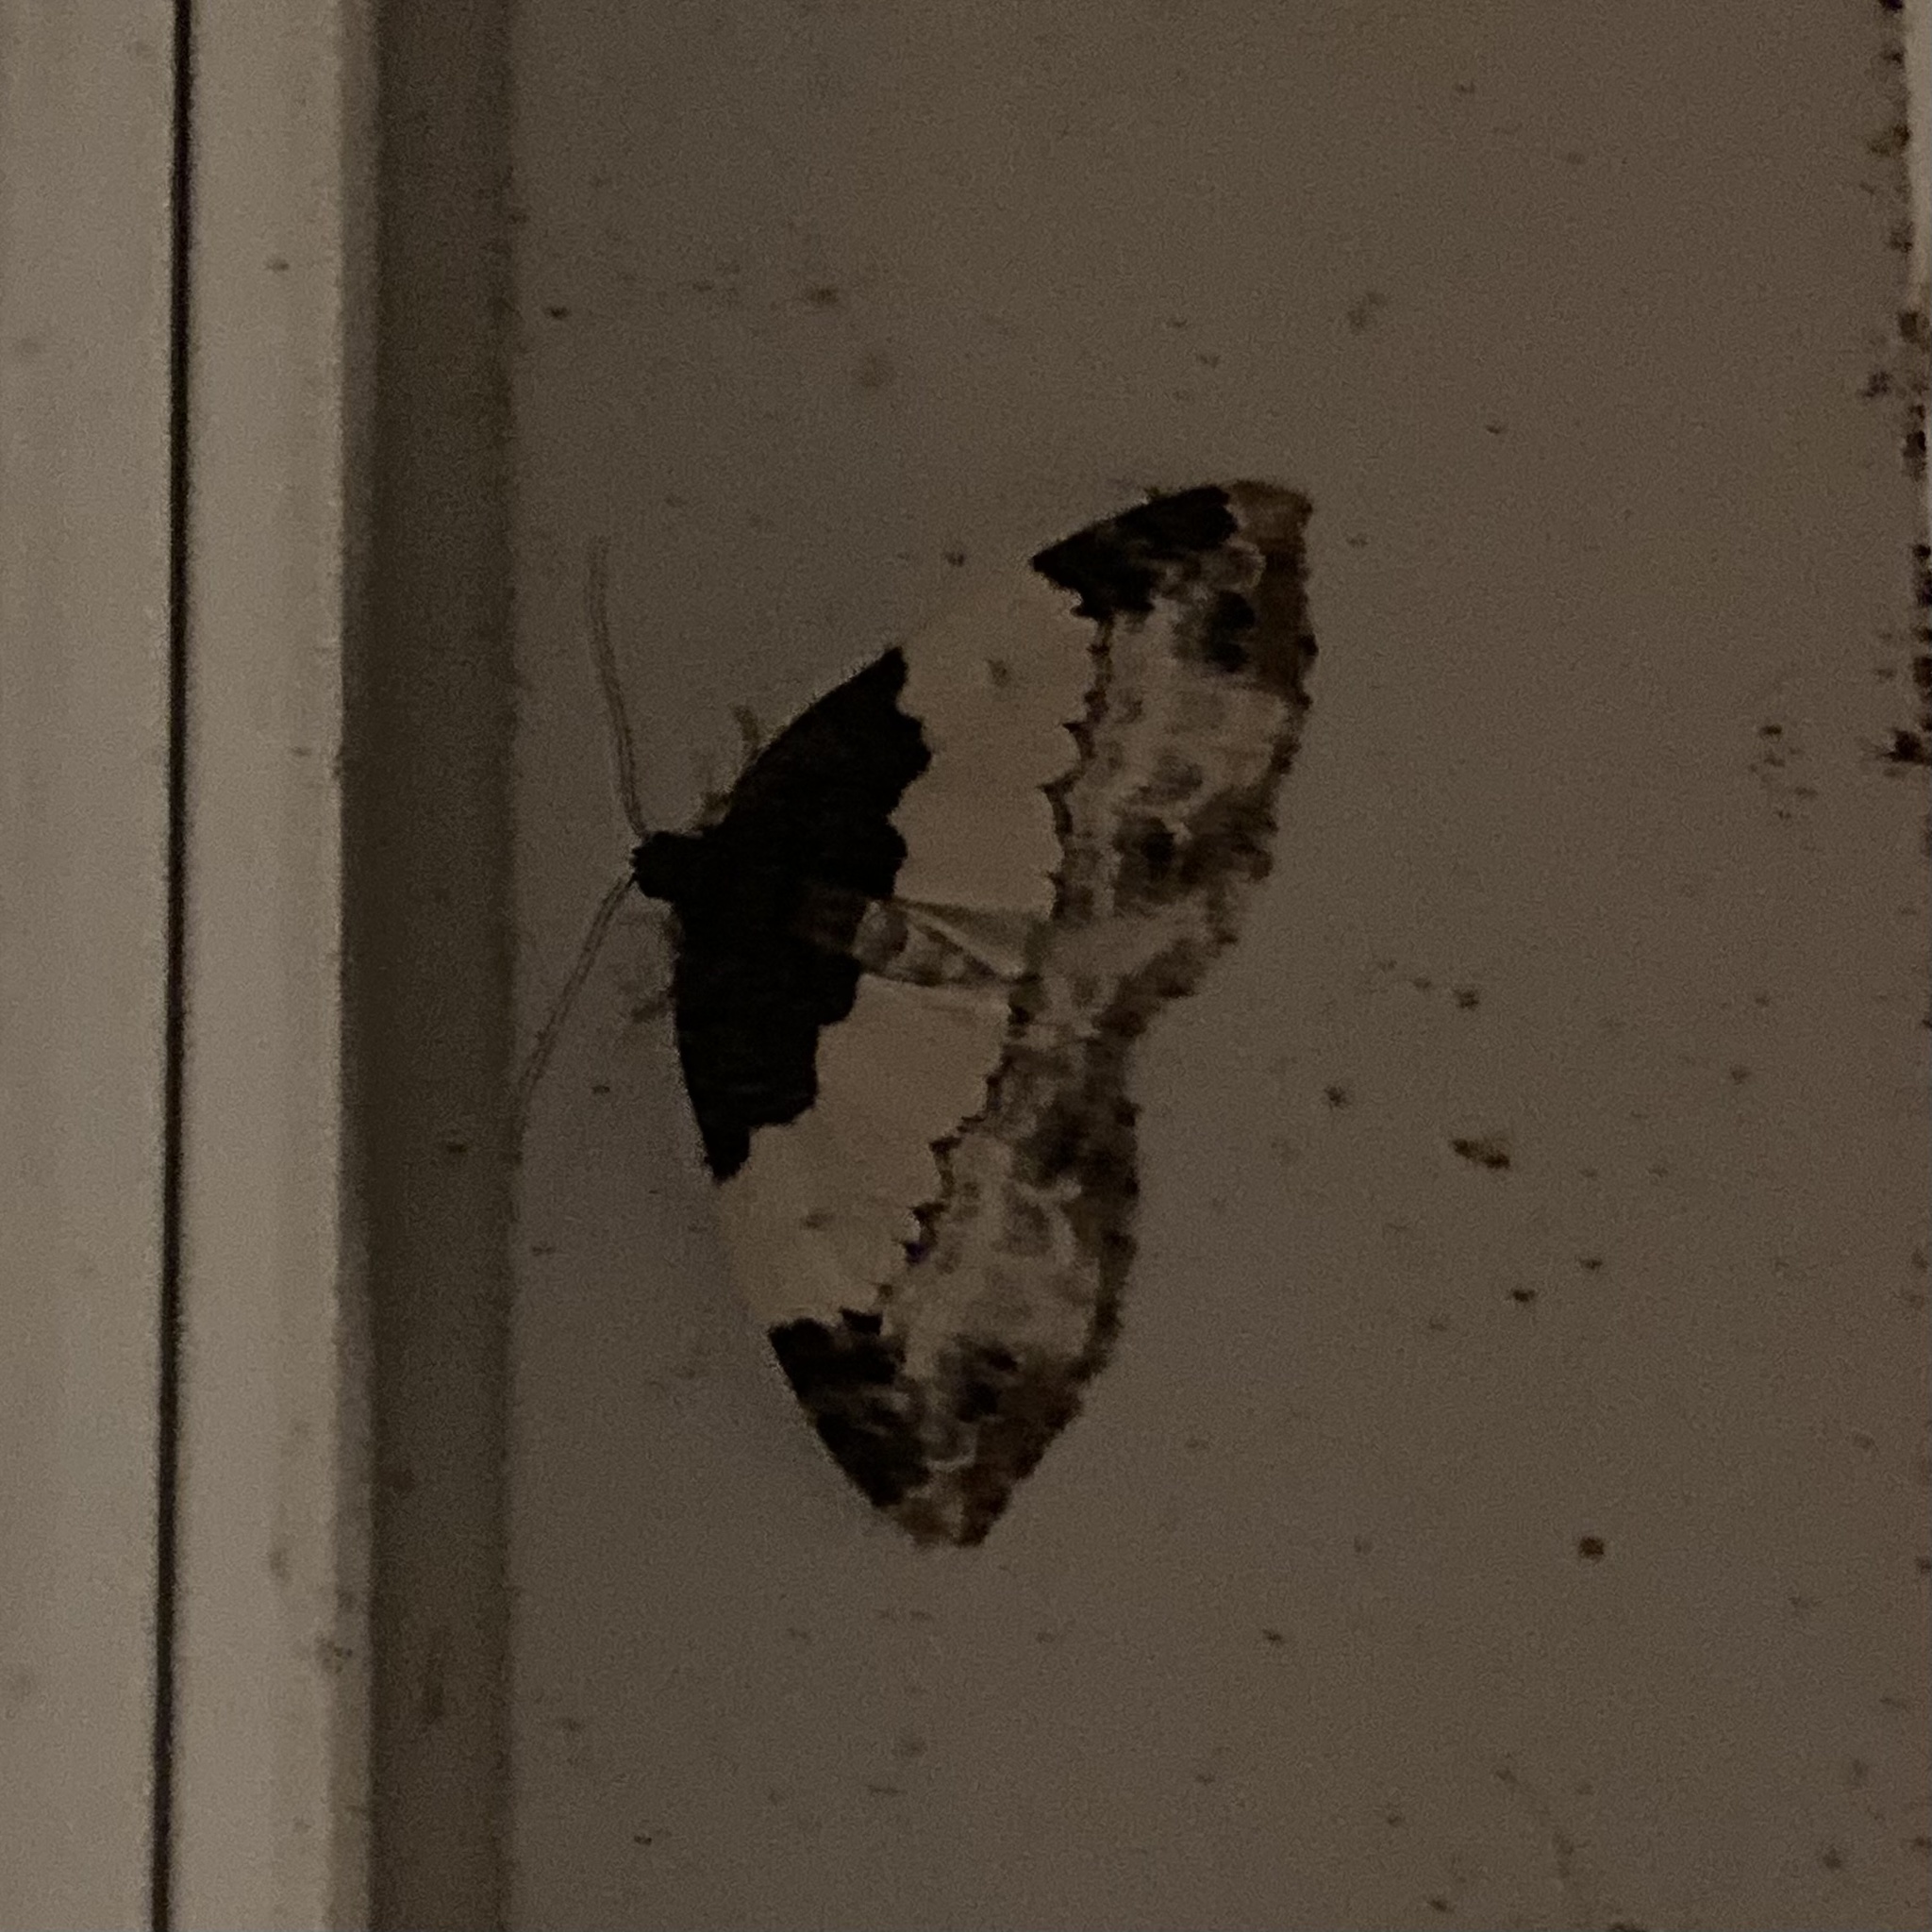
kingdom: Animalia
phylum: Arthropoda
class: Insecta
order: Lepidoptera
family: Geometridae
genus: Mesoleuca
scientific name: Mesoleuca ruficillata
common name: White-ribboned carpet moth
